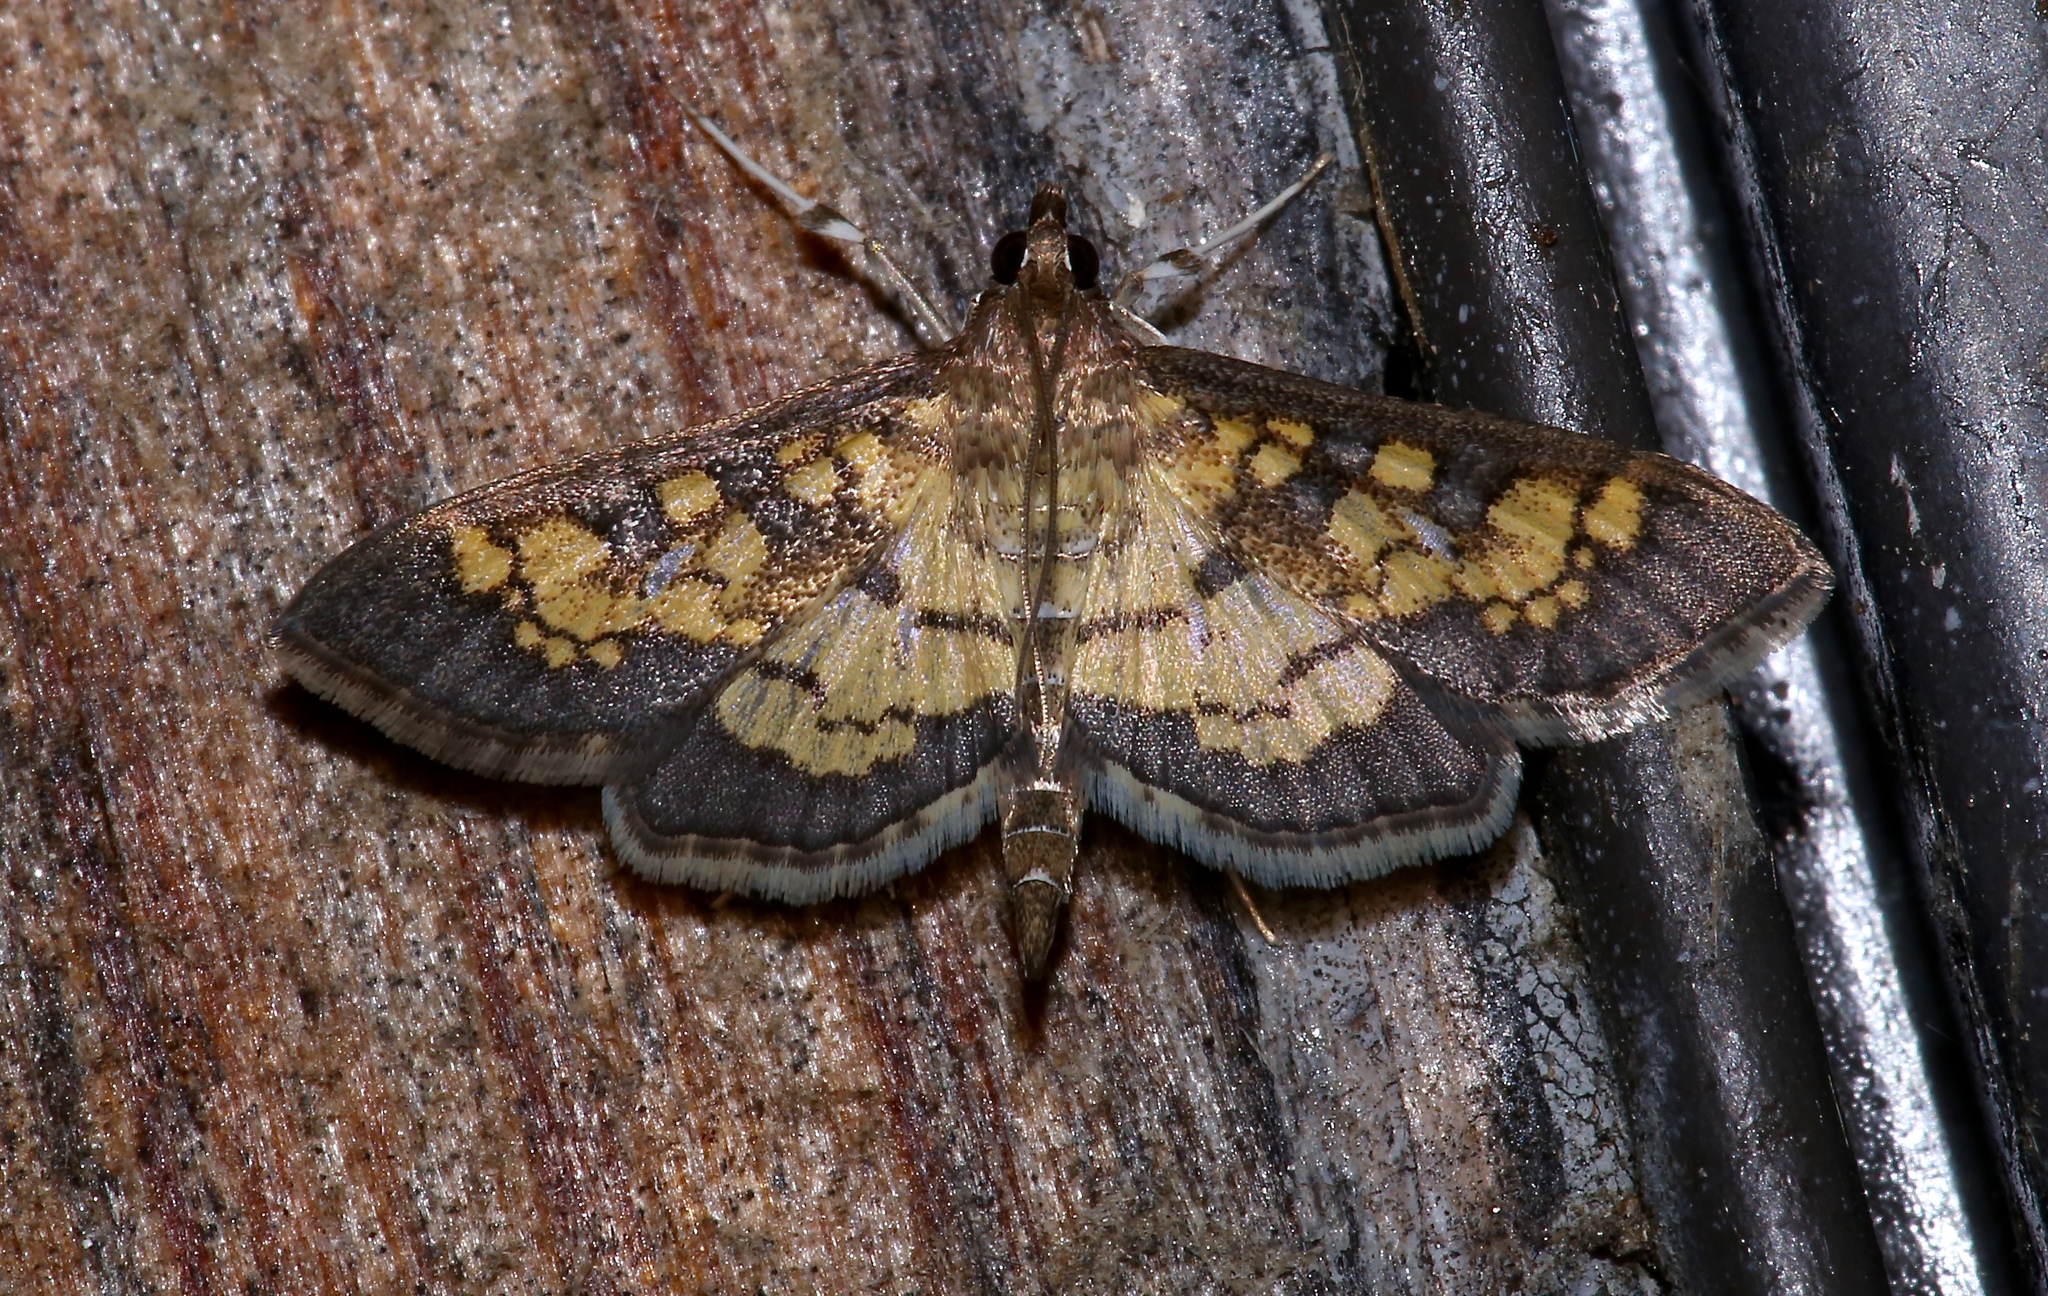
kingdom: Animalia
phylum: Arthropoda
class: Insecta
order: Lepidoptera
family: Crambidae
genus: Epipagis
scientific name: Epipagis adipaloides
